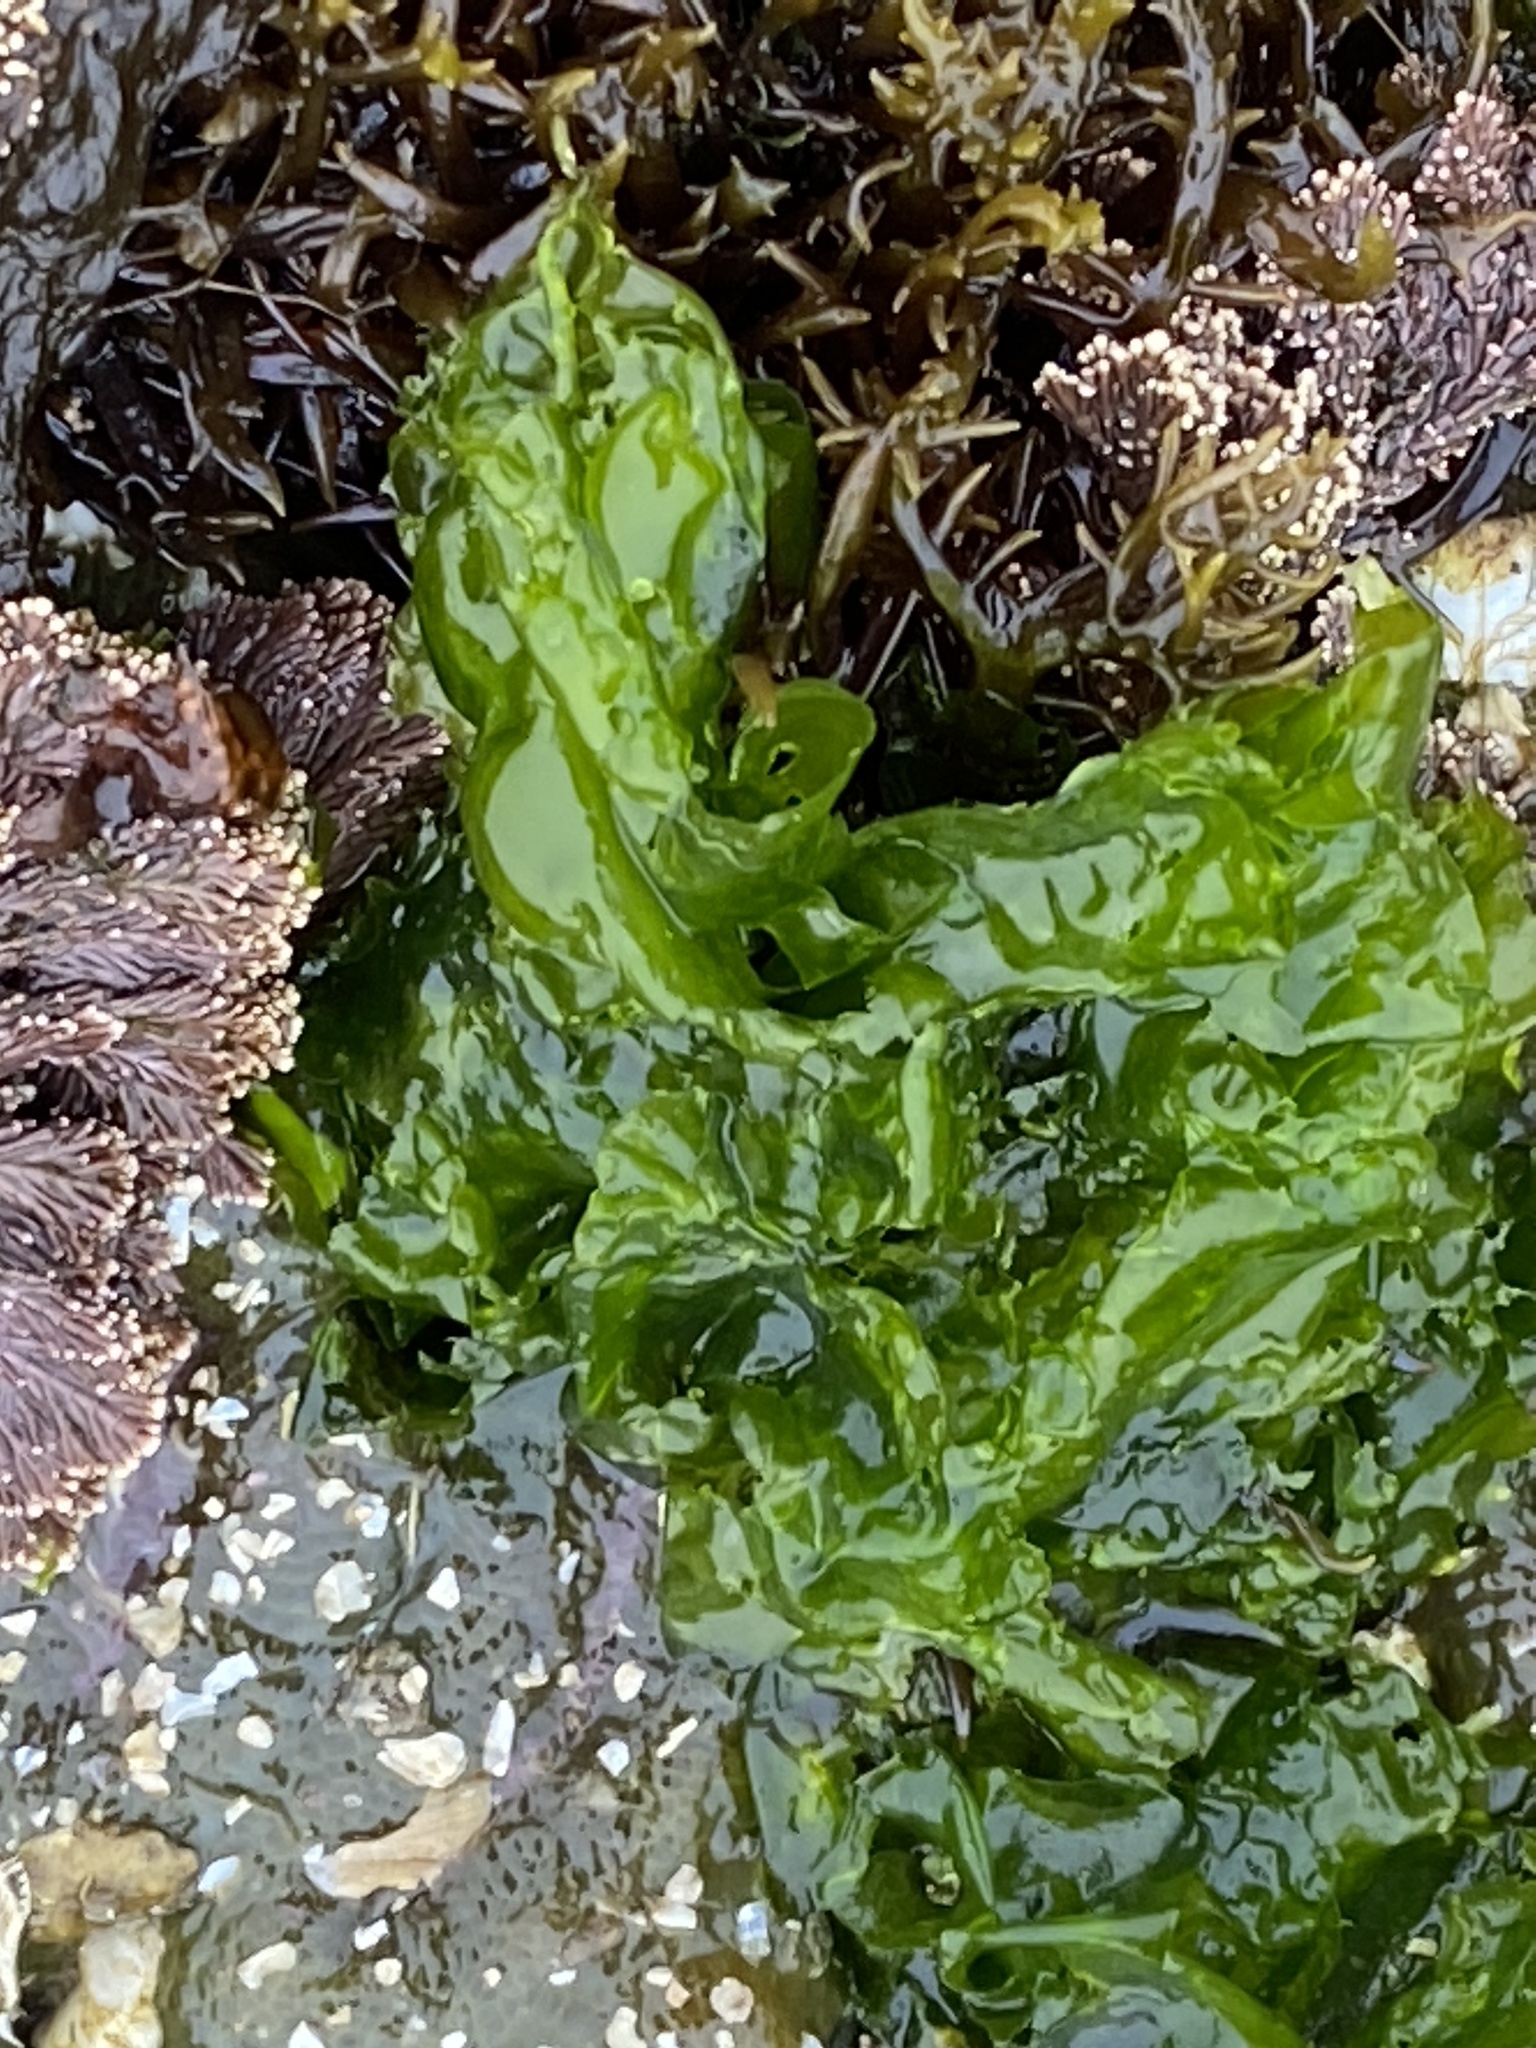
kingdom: Plantae
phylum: Chlorophyta
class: Ulvophyceae
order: Ulvales
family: Ulvaceae
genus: Ulva
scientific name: Ulva lactuca
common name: Sea lettuce
